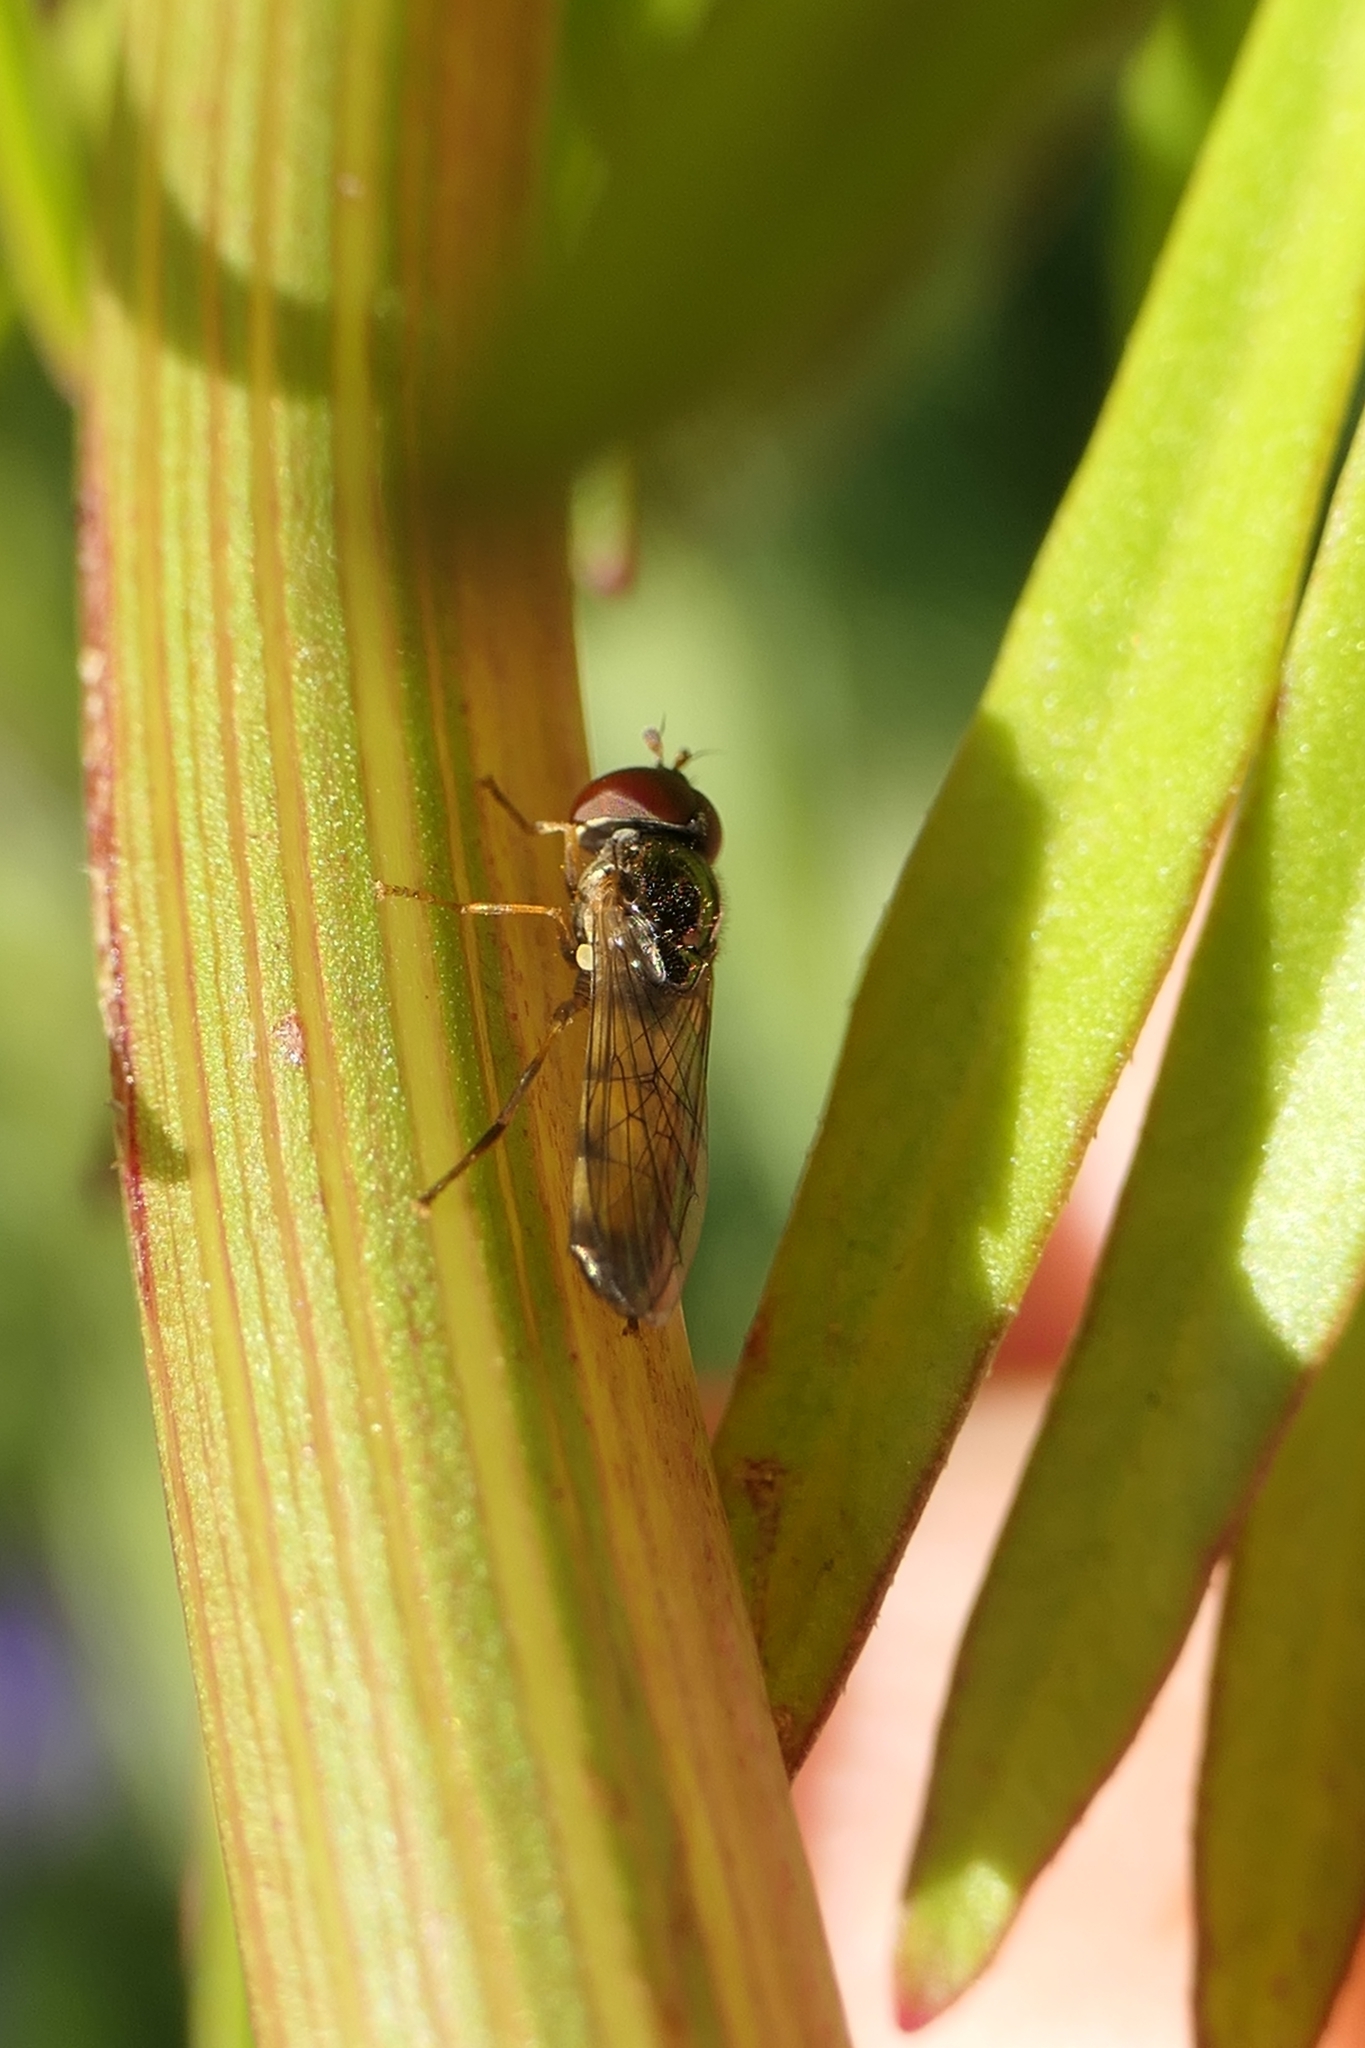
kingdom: Animalia
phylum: Arthropoda
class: Insecta
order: Diptera
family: Syrphidae
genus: Melanostoma
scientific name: Melanostoma fasciatum
